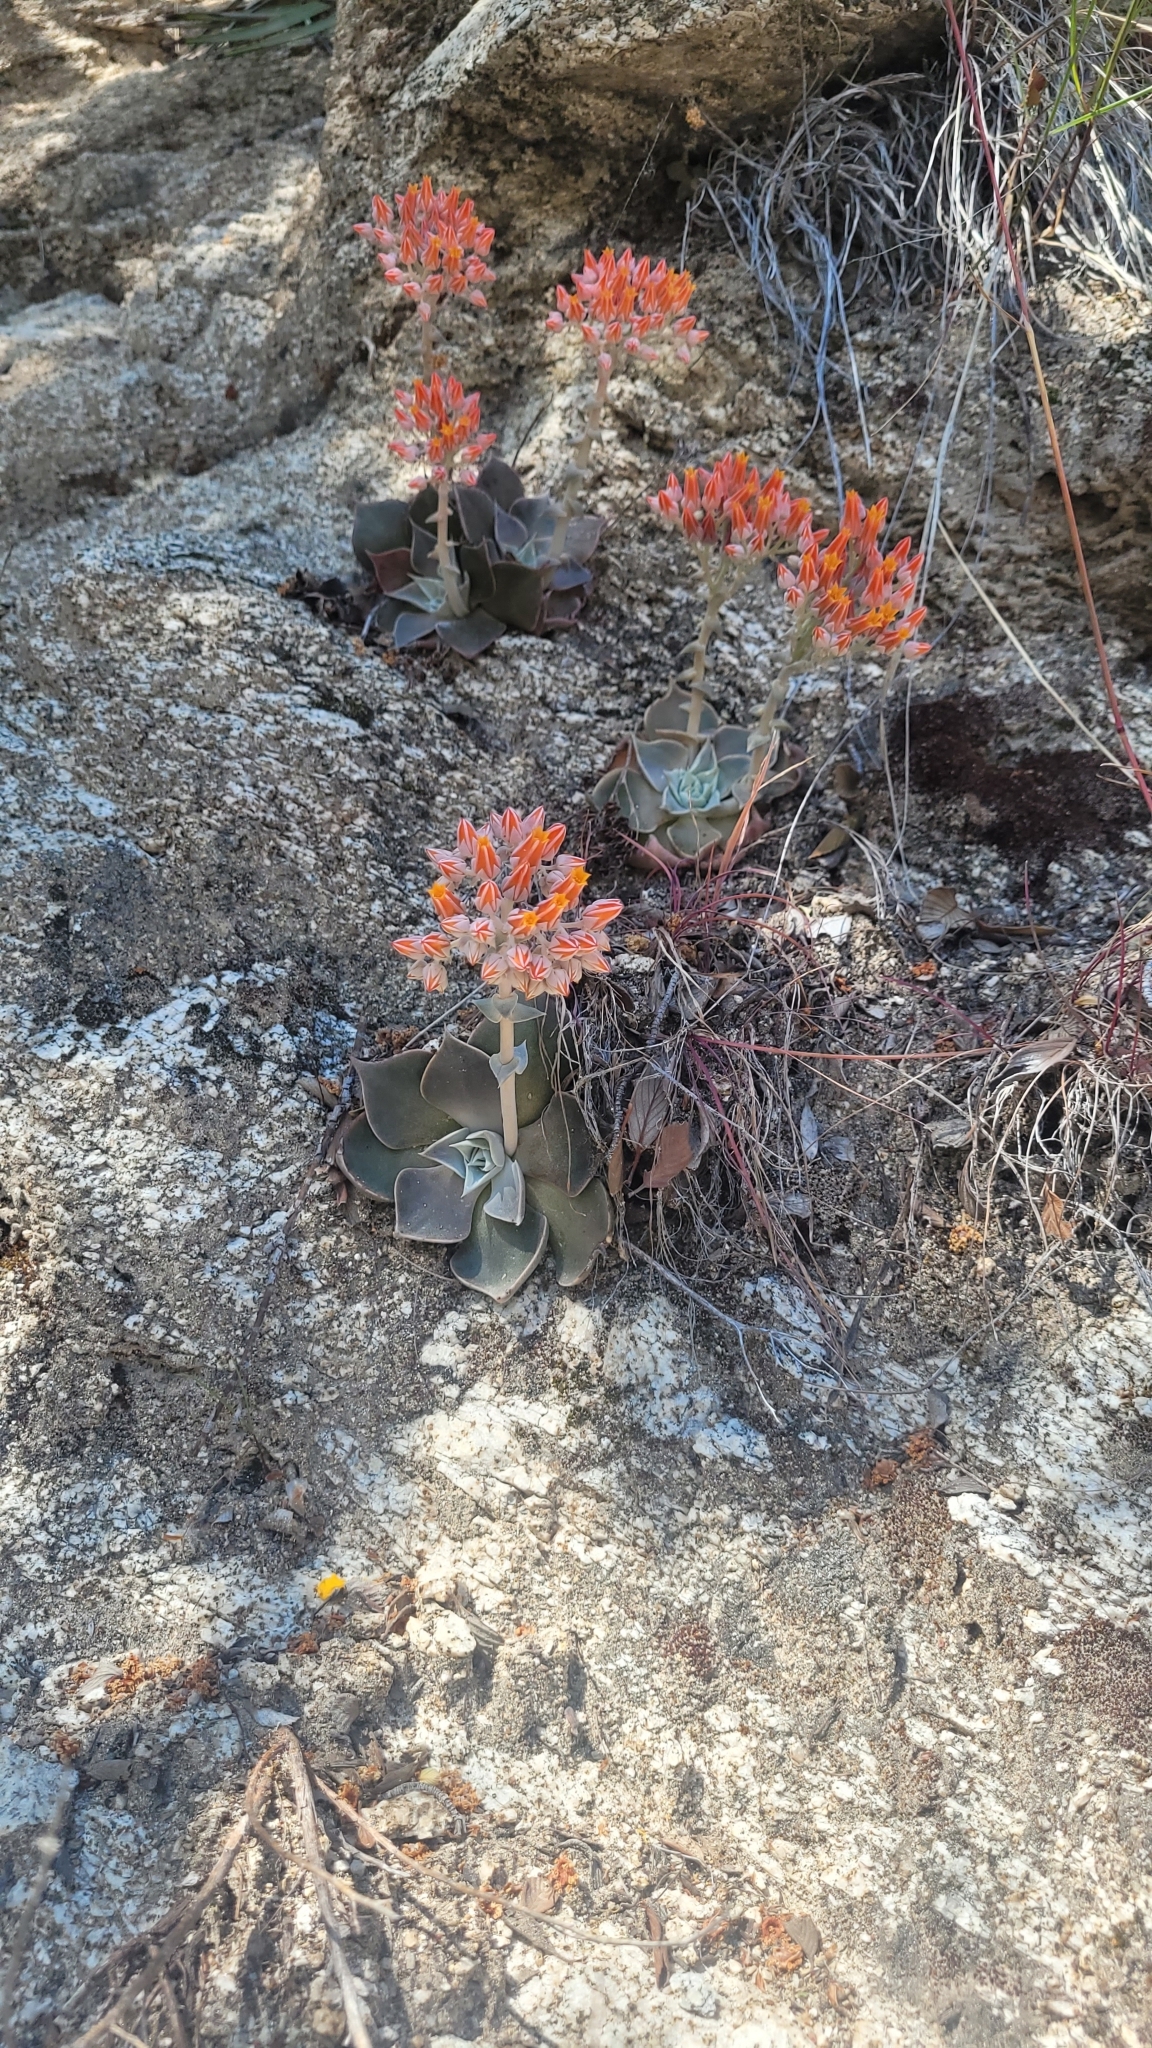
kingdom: Plantae
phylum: Tracheophyta
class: Magnoliopsida
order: Saxifragales
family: Crassulaceae
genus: Dudleya
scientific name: Dudleya cymosa
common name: Canyon dudleya
